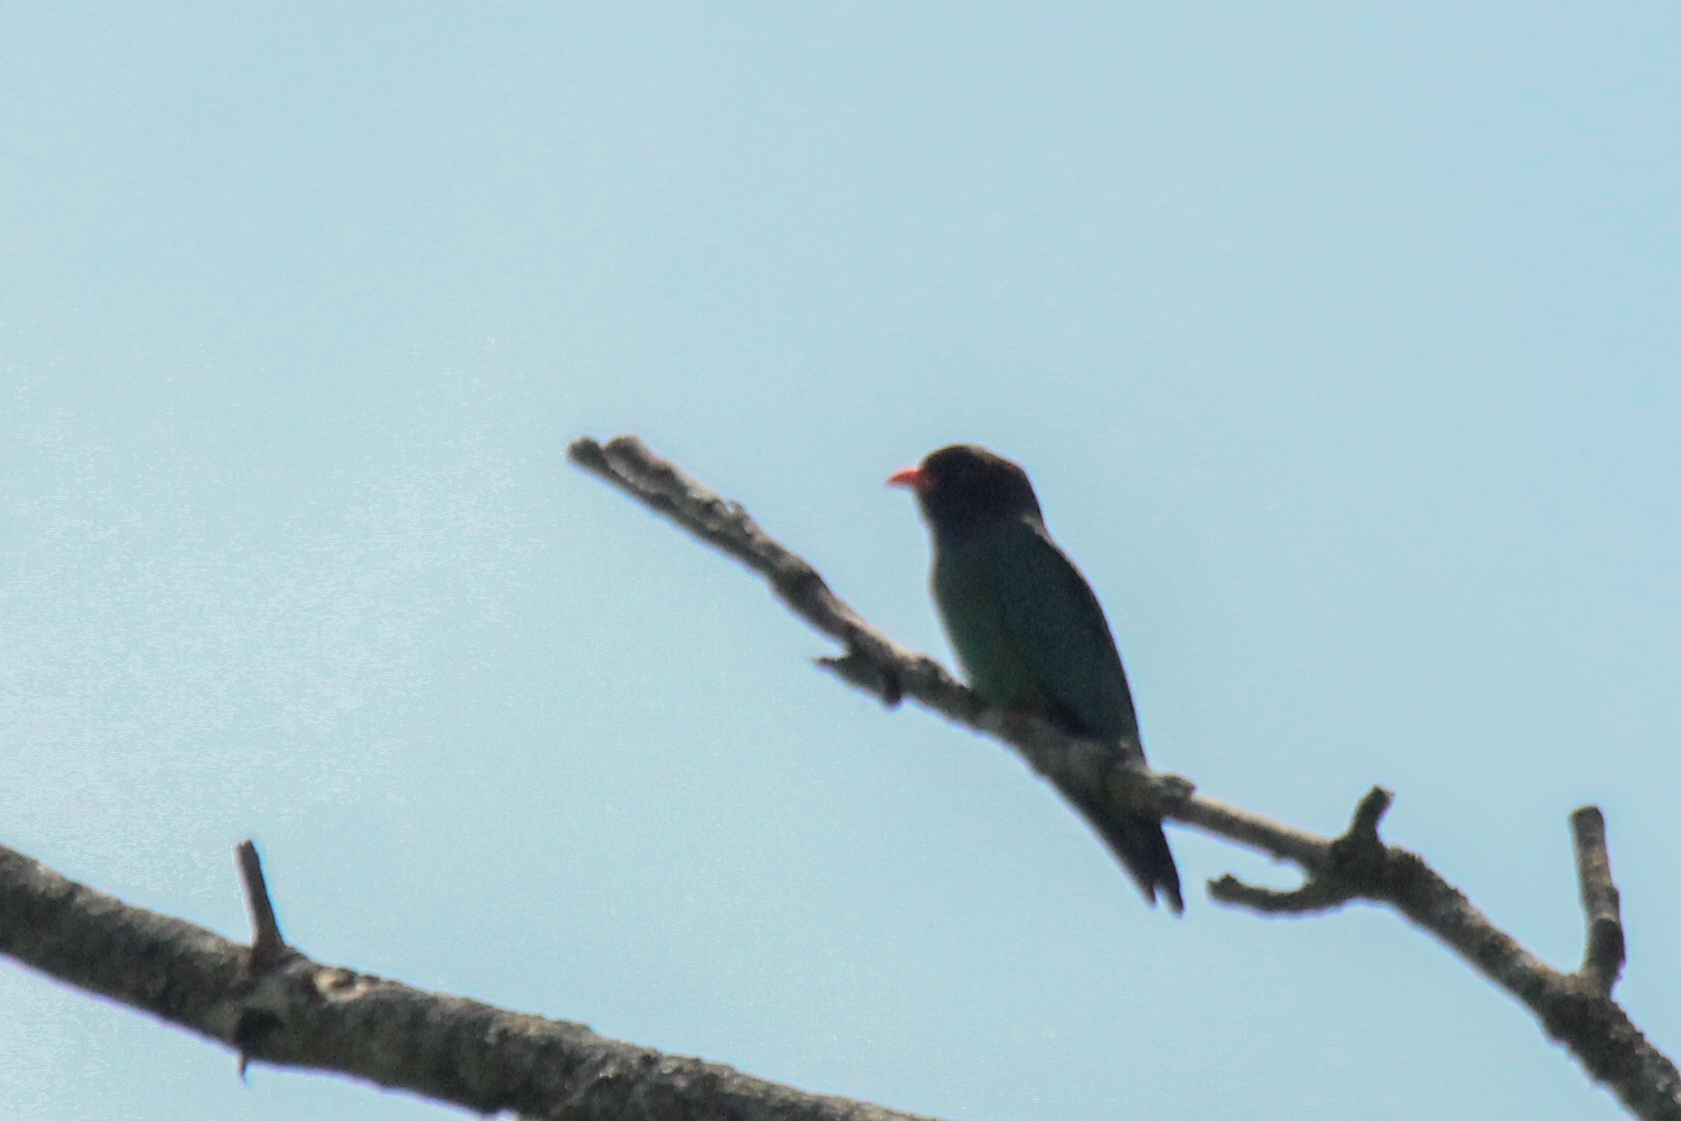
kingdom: Animalia
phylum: Chordata
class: Aves
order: Coraciiformes
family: Coraciidae
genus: Eurystomus
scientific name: Eurystomus orientalis
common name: Oriental dollarbird
